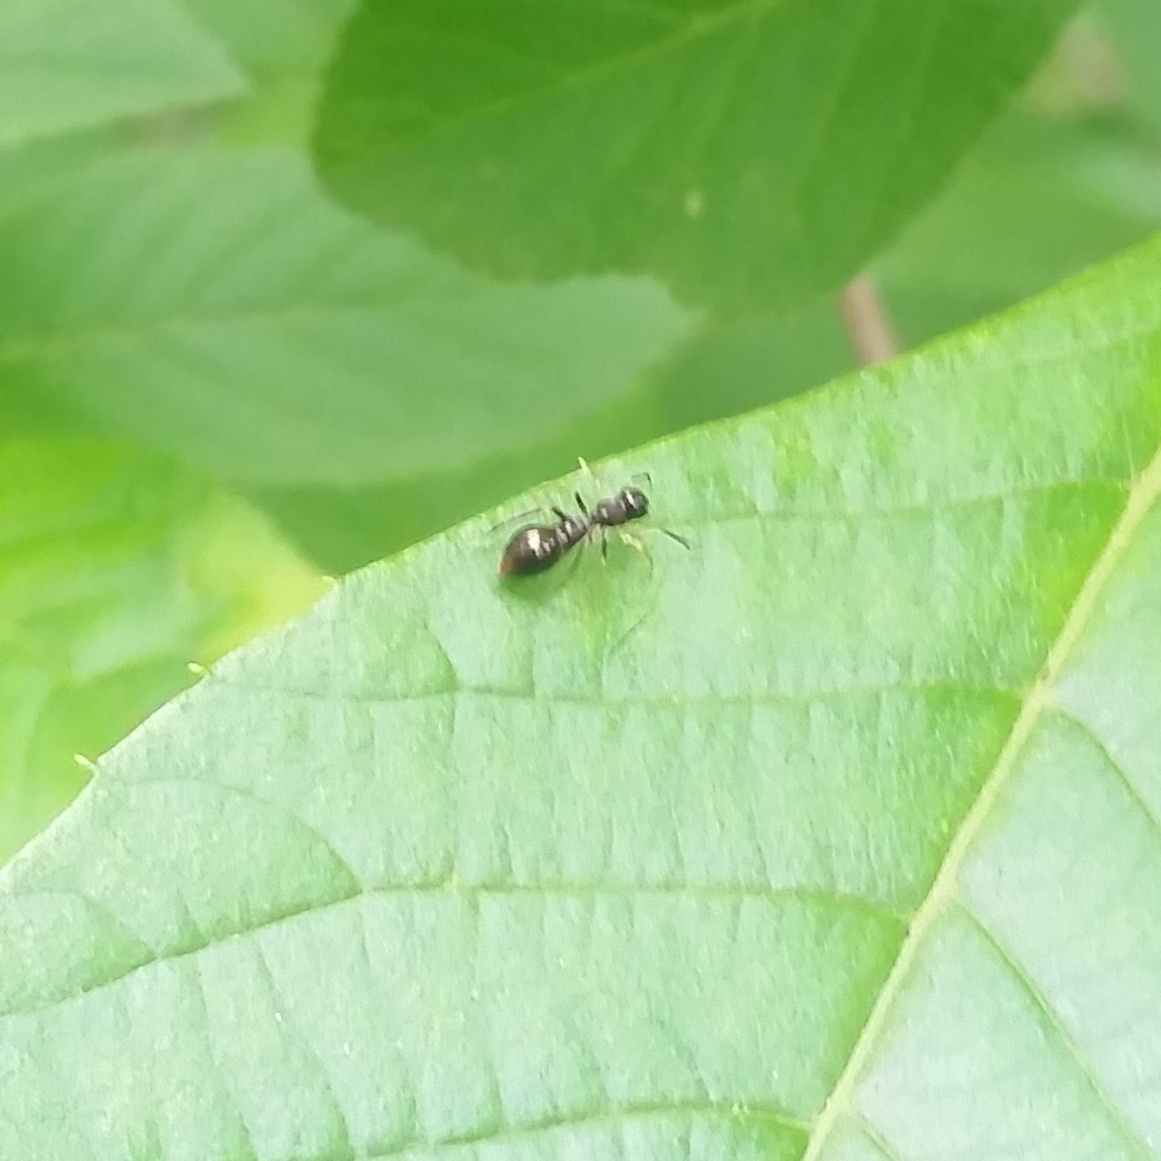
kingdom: Animalia
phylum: Arthropoda
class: Arachnida
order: Araneae
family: Salticidae
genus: Synemosyna
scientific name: Synemosyna formica
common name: Slender ant-mimic jumping spider
